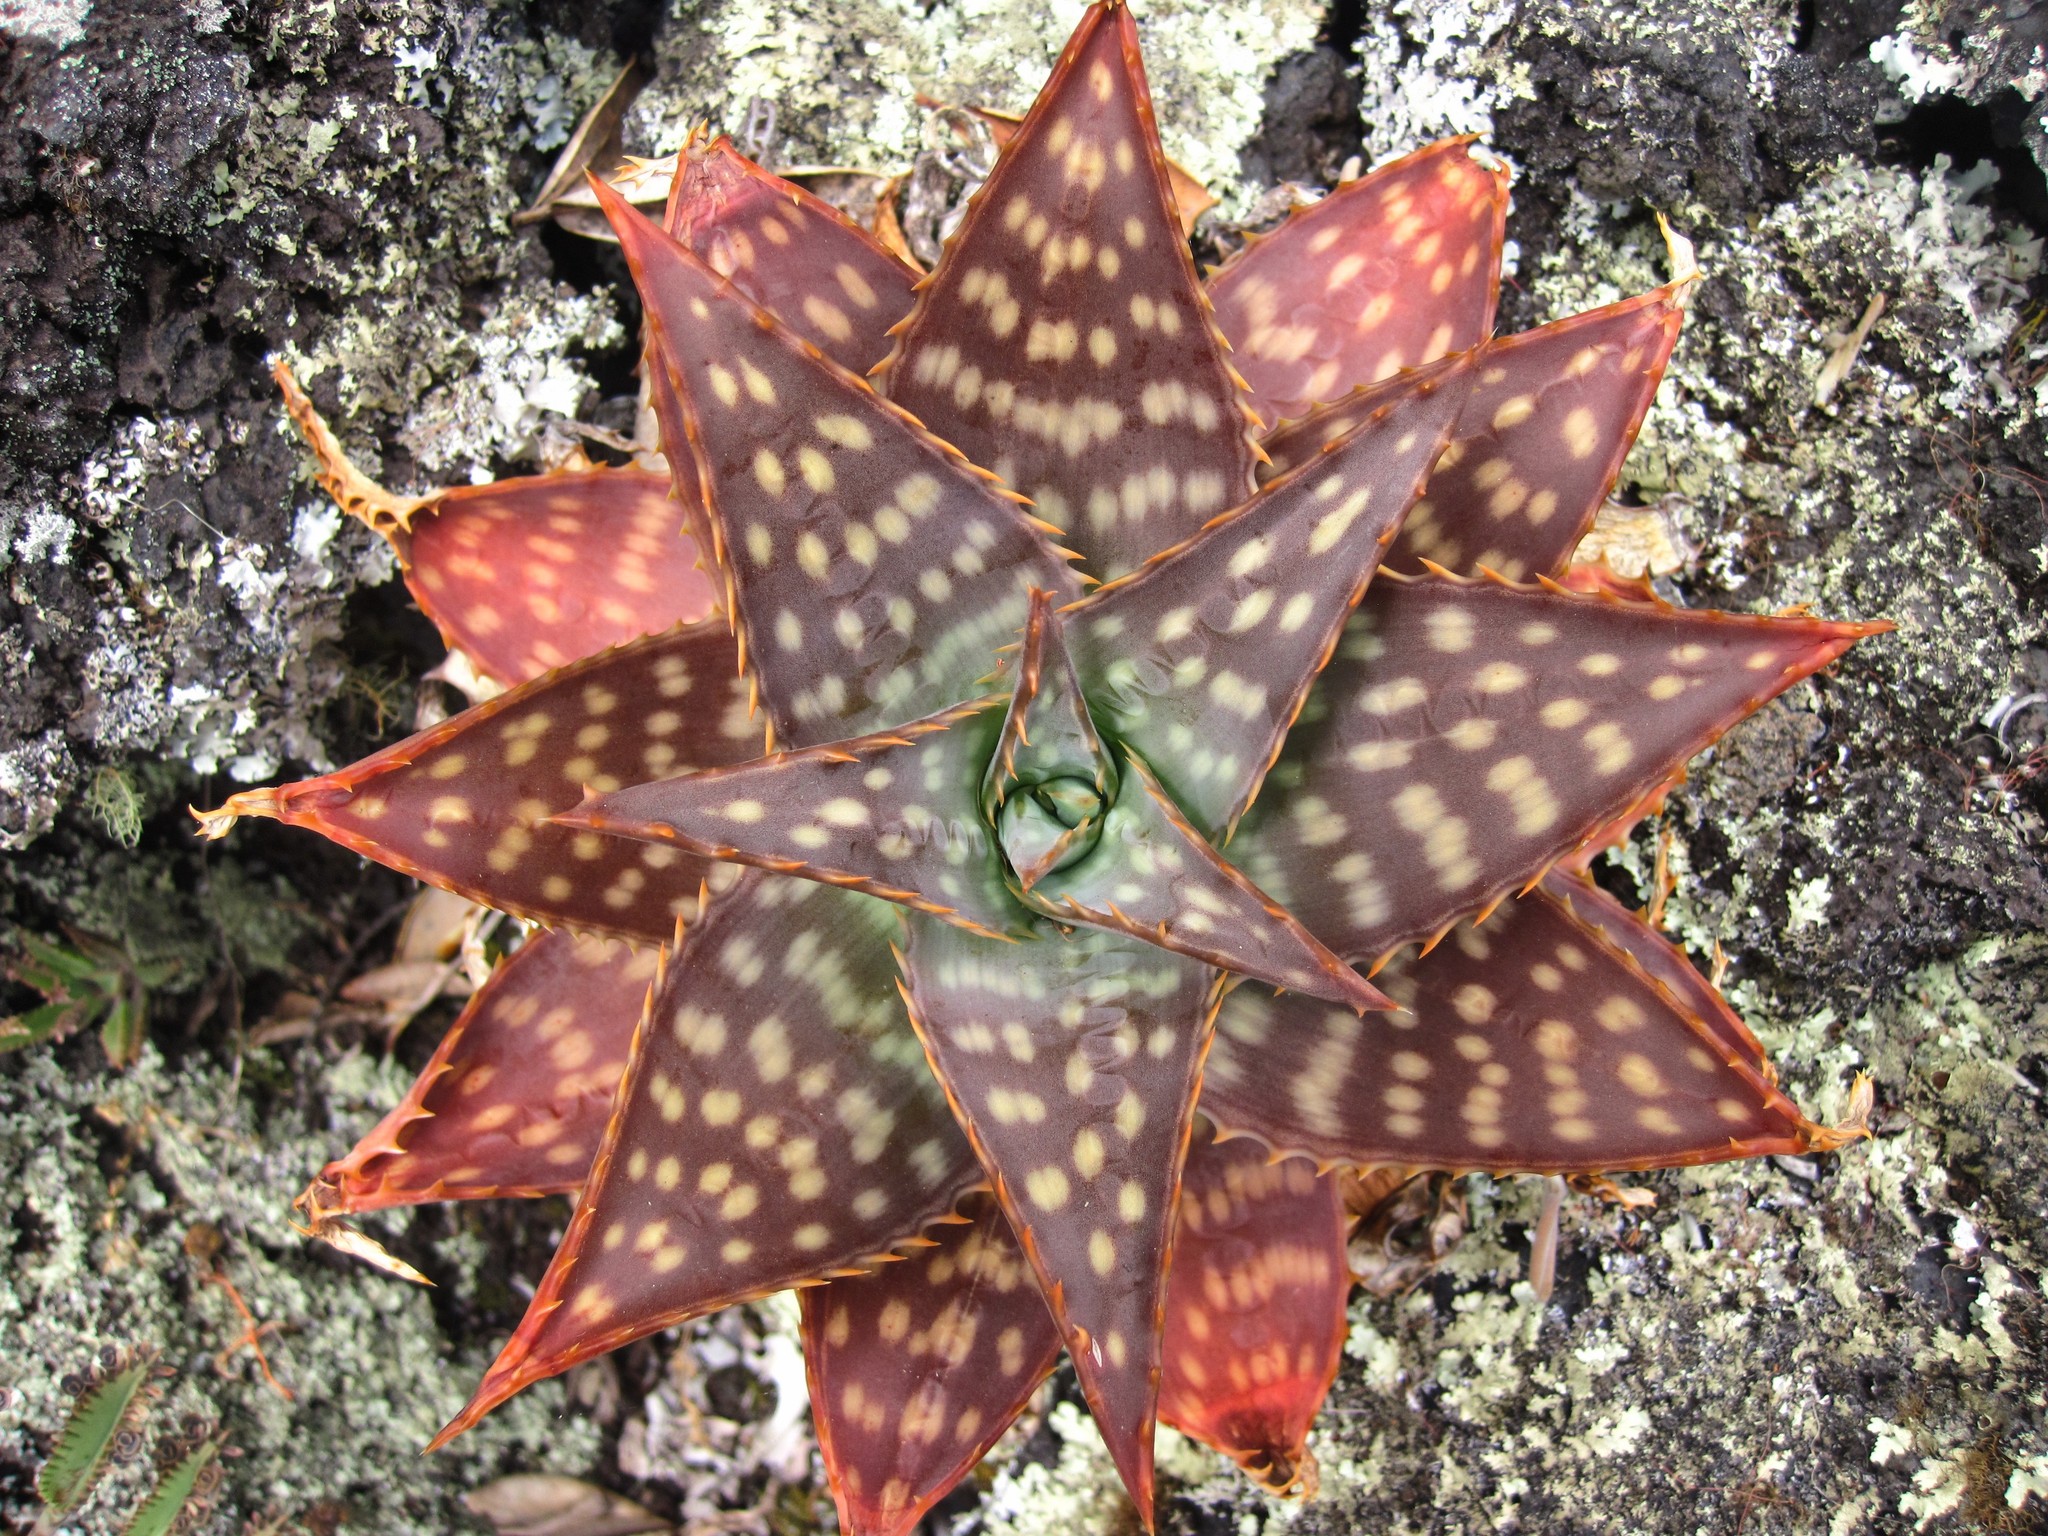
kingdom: Plantae
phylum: Tracheophyta
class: Liliopsida
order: Asparagales
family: Asphodelaceae
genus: Aloe
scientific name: Aloe maculata
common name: Broadleaf aloe
